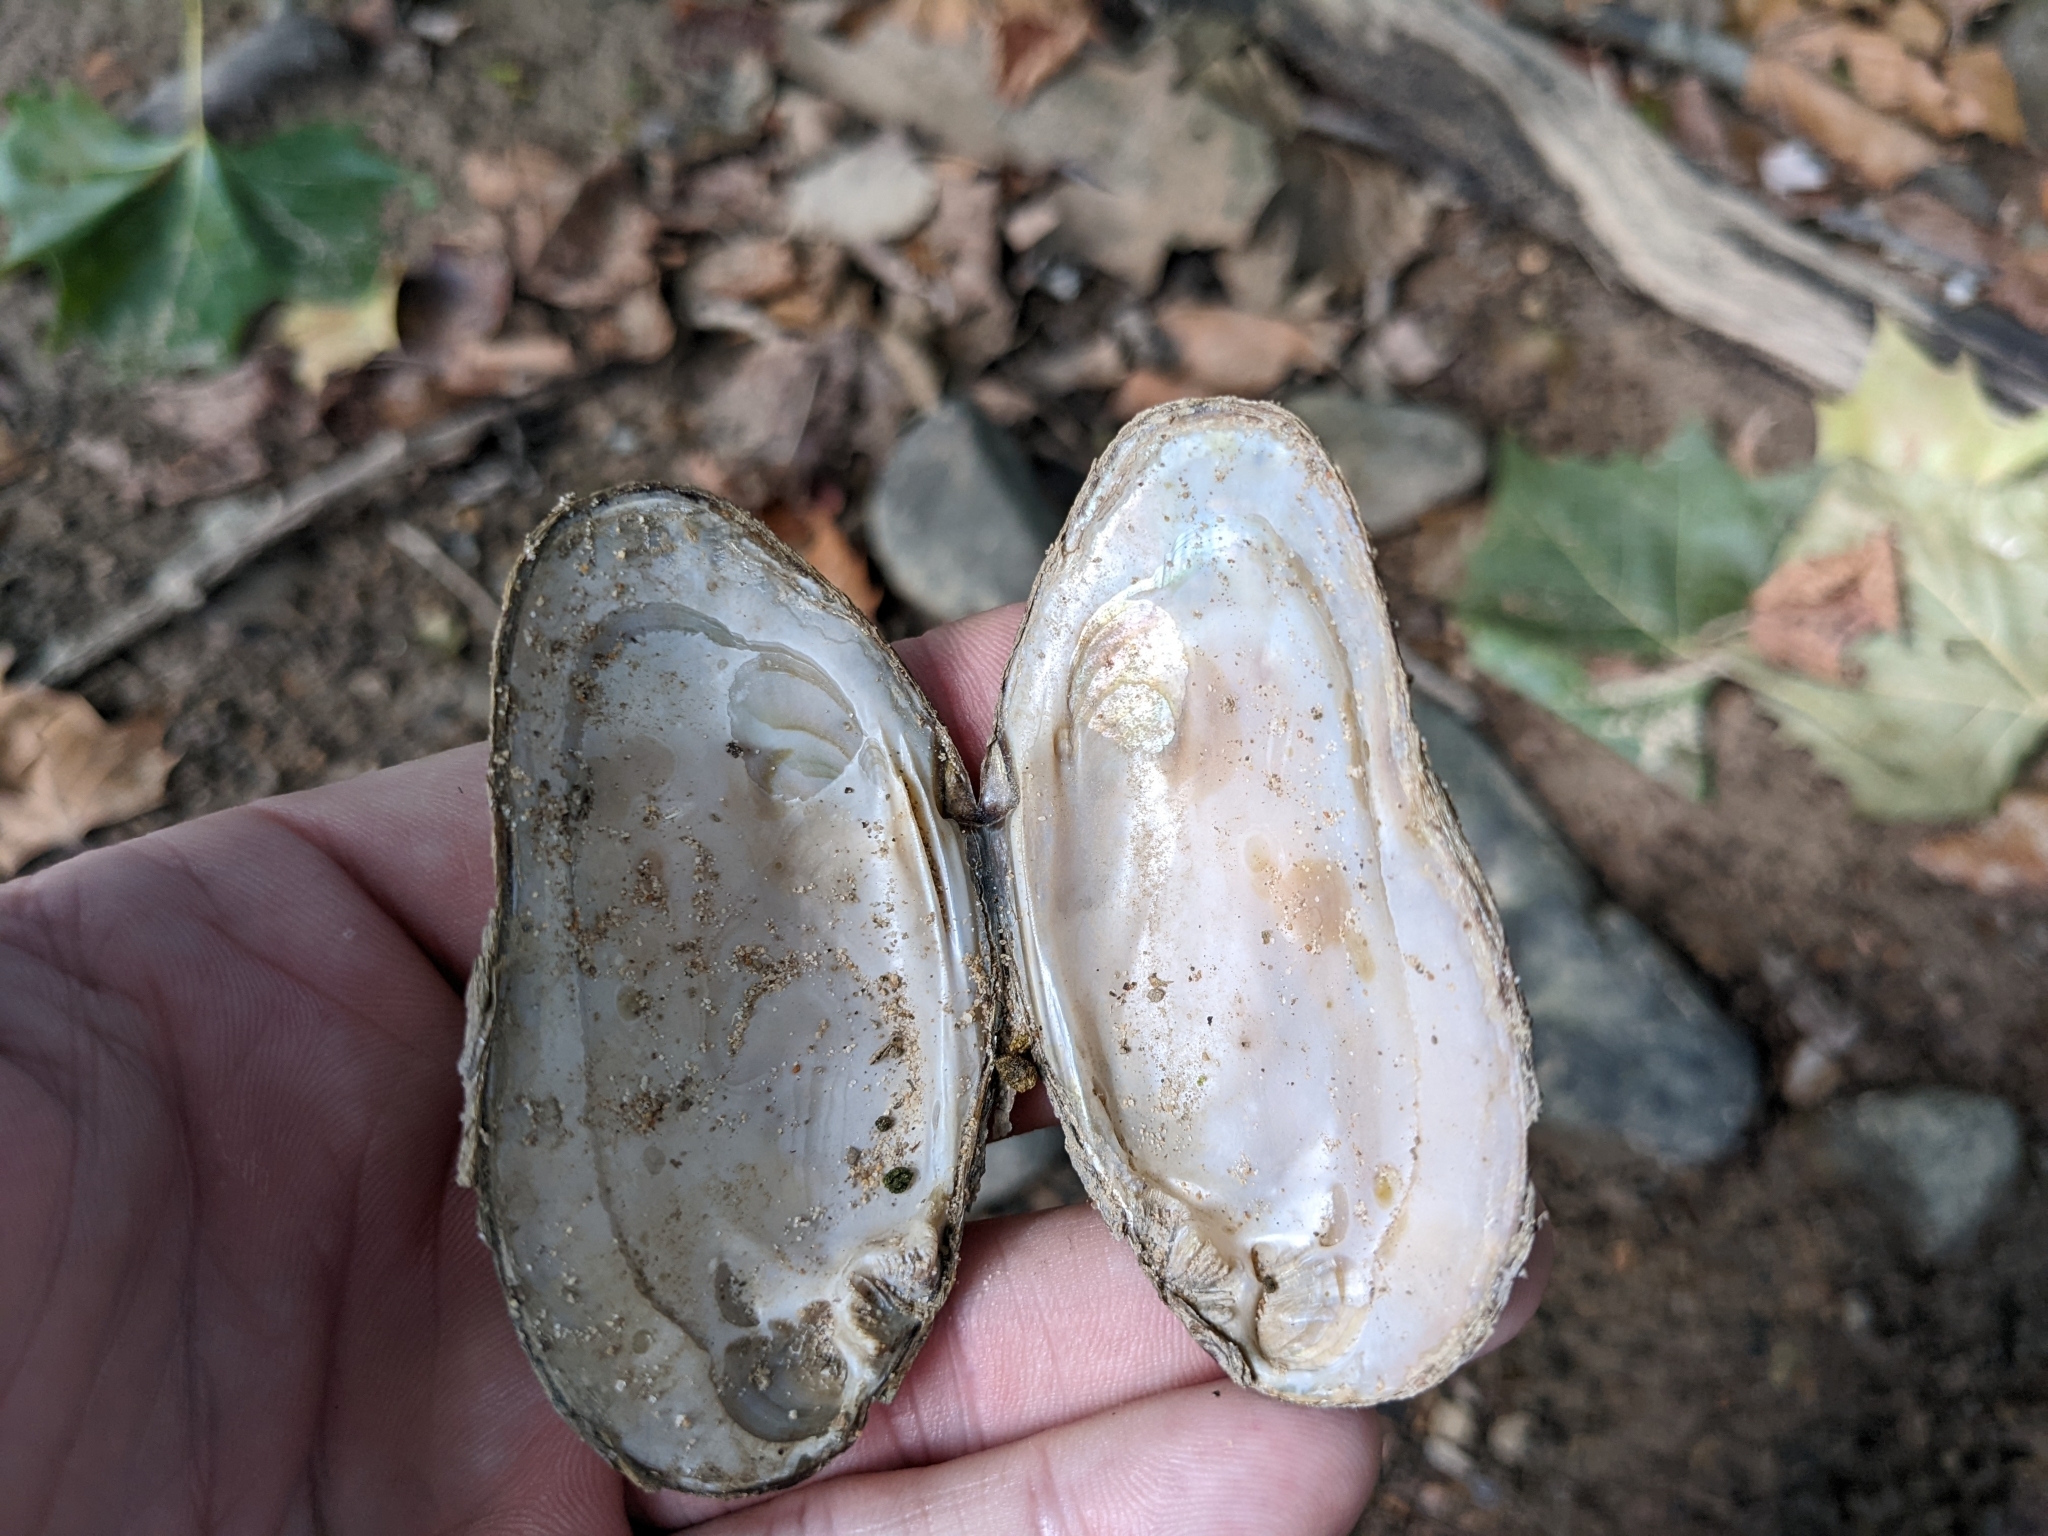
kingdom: Animalia
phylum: Mollusca
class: Bivalvia
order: Unionida
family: Unionidae
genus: Elliptio
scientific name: Elliptio complanata
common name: Eastern elliptio
